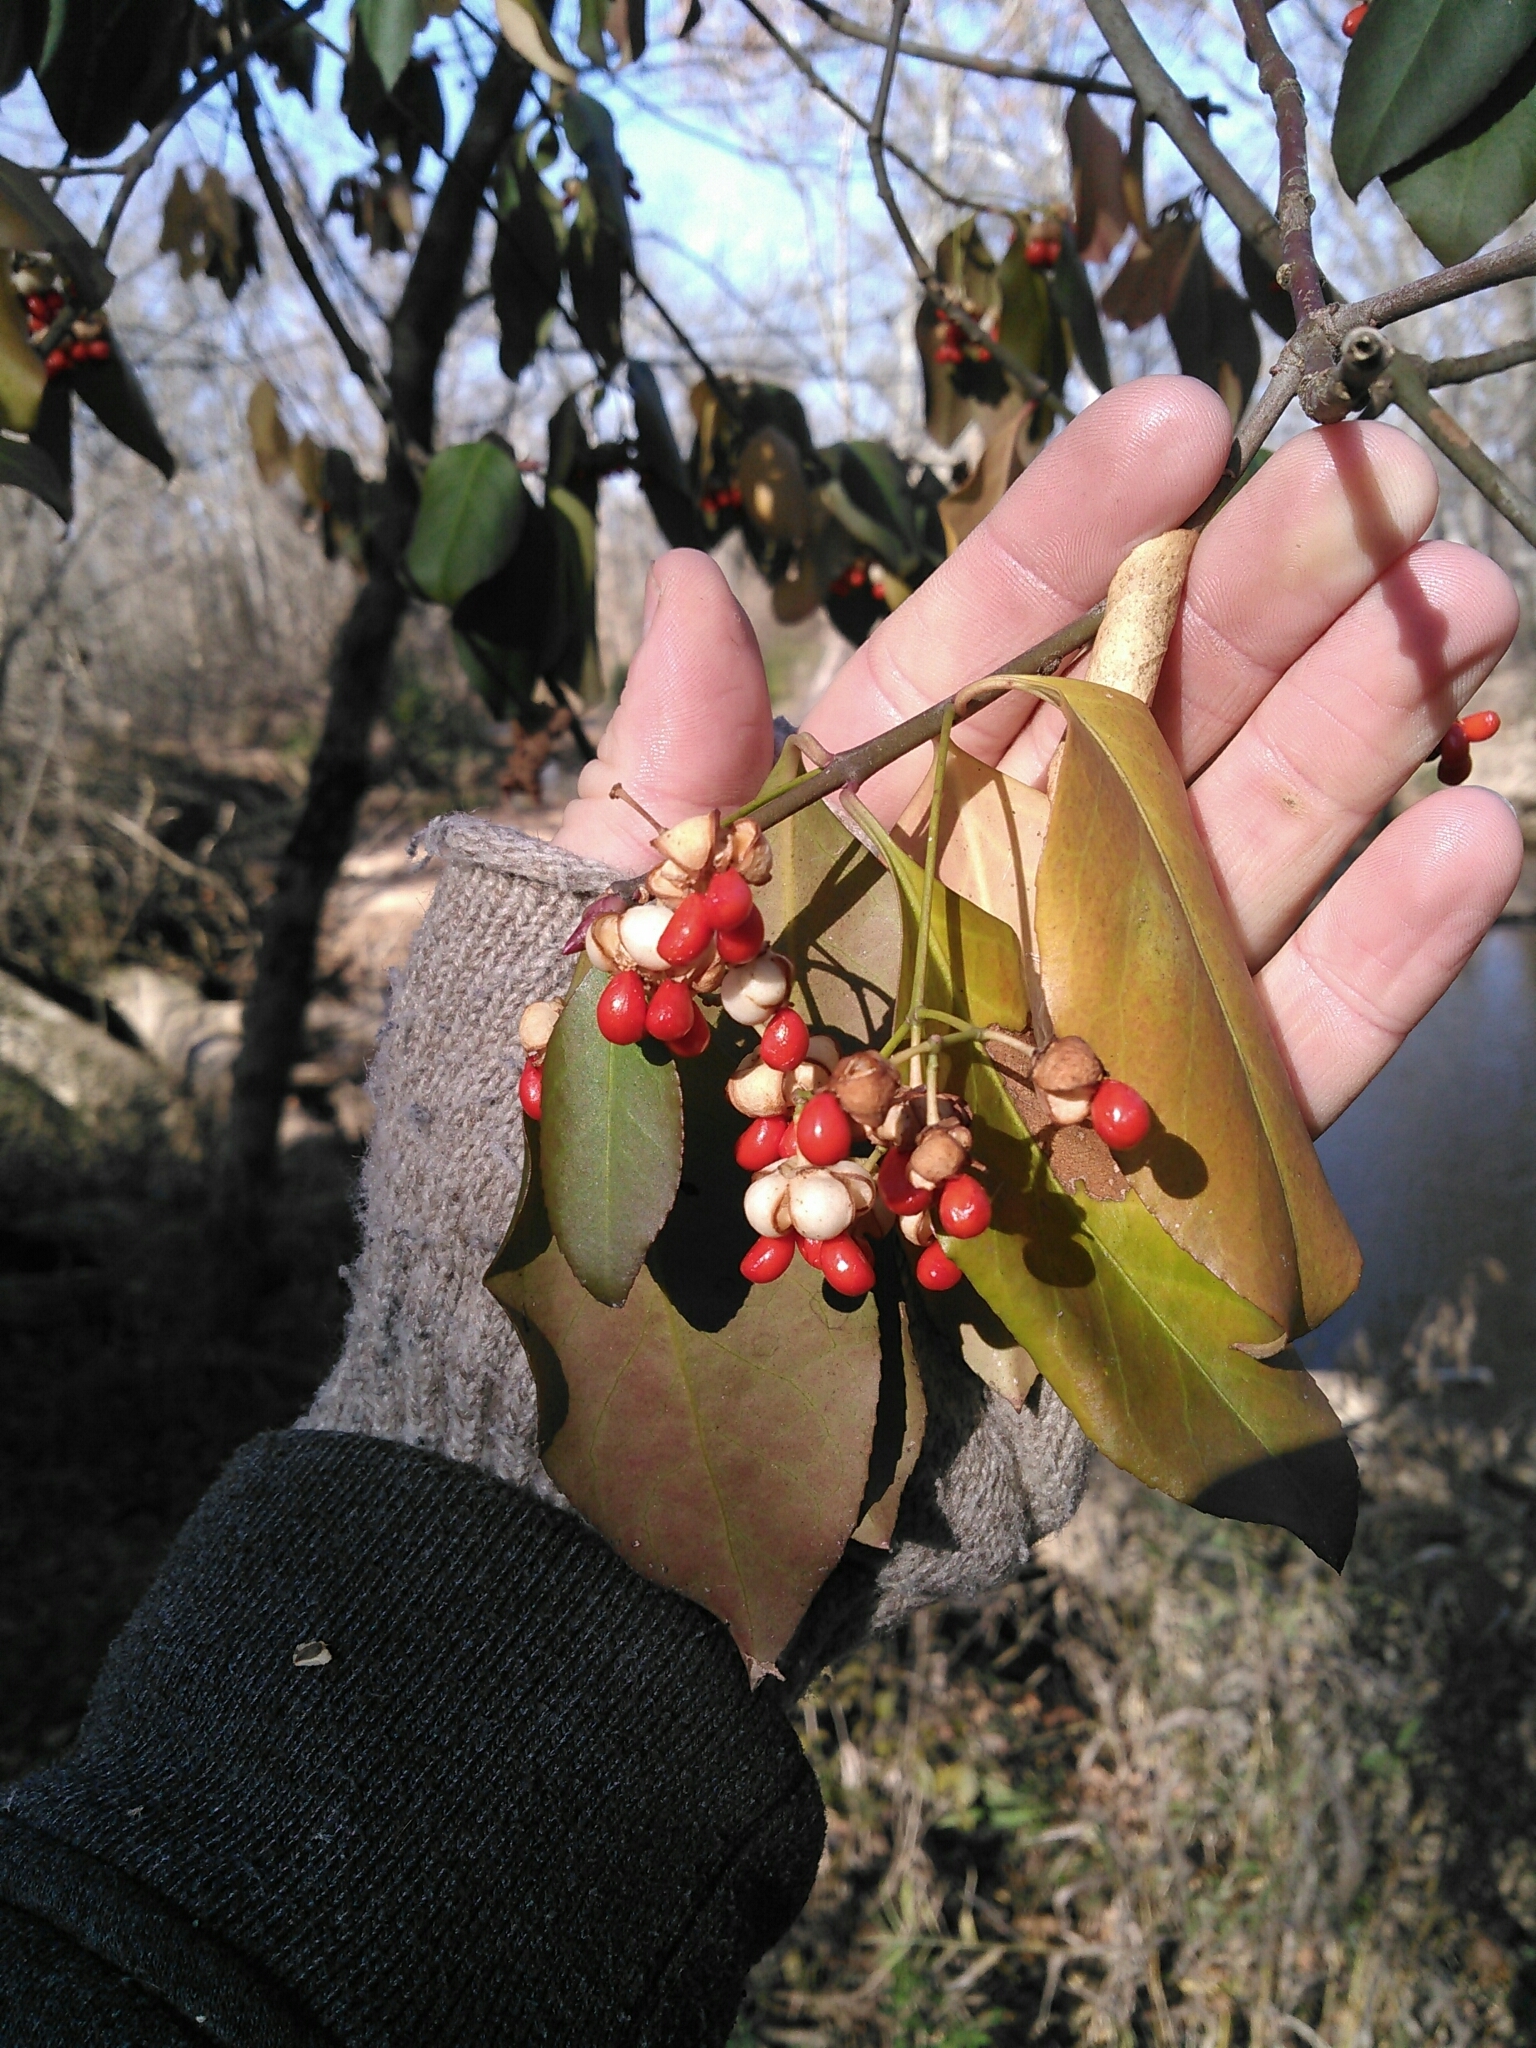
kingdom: Plantae
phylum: Tracheophyta
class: Magnoliopsida
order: Celastrales
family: Celastraceae
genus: Euonymus
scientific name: Euonymus fortunei
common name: Climbing euonymus
